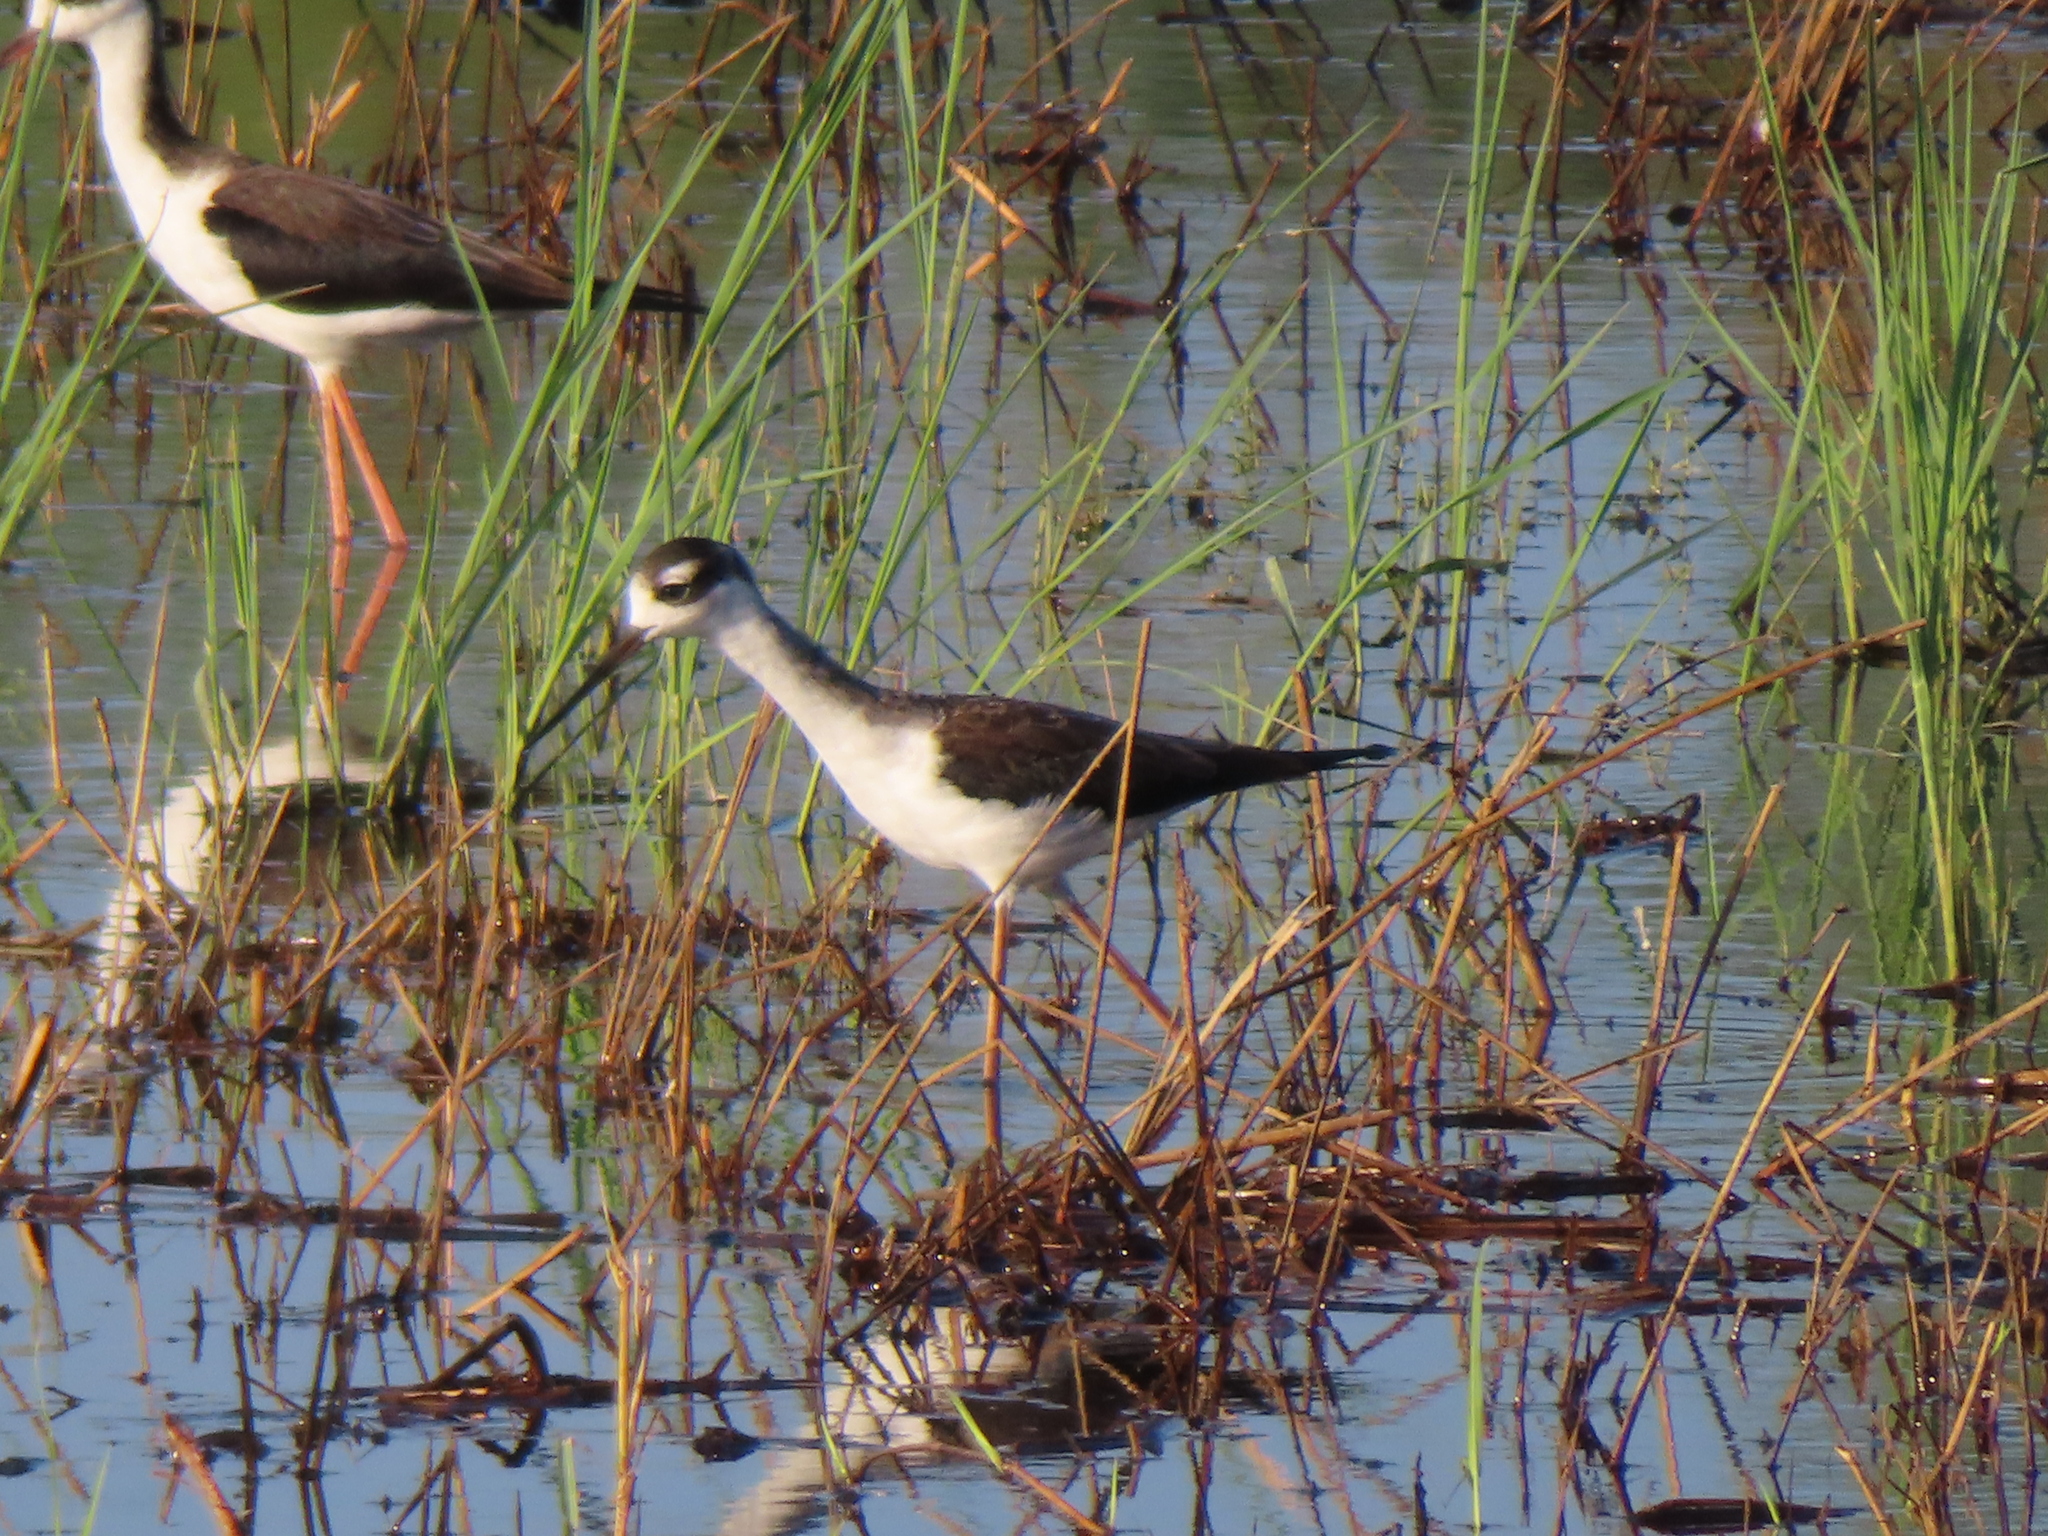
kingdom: Animalia
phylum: Chordata
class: Aves
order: Charadriiformes
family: Recurvirostridae
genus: Himantopus
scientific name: Himantopus mexicanus
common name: Black-necked stilt
